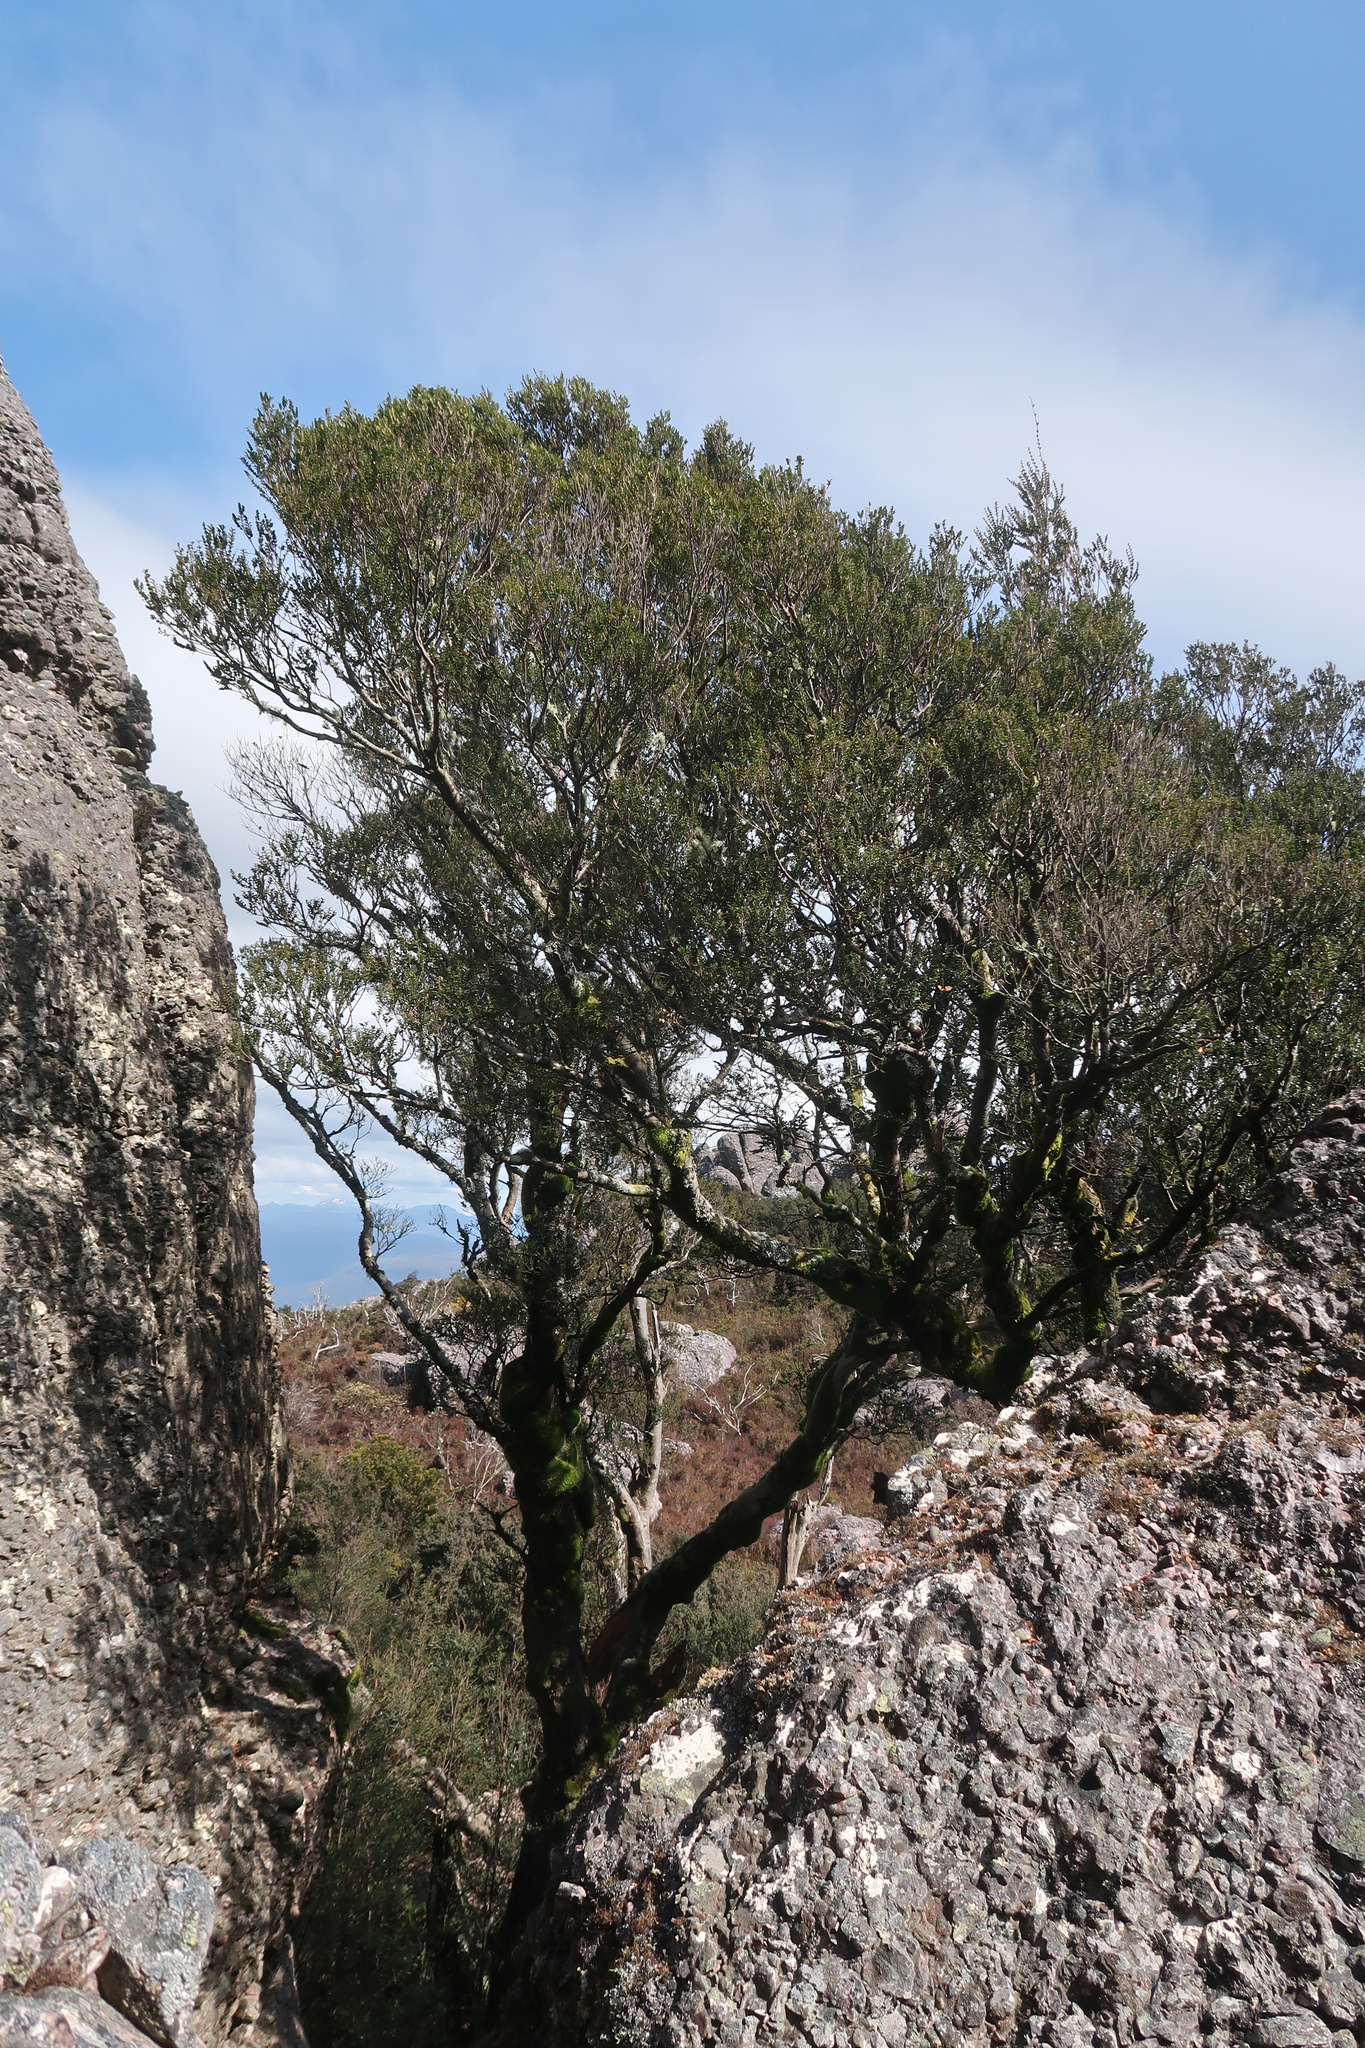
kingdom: Plantae
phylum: Tracheophyta
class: Magnoliopsida
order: Fagales
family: Nothofagaceae
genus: Nothofagus
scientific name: Nothofagus cunninghamii
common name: Myrtle beech
